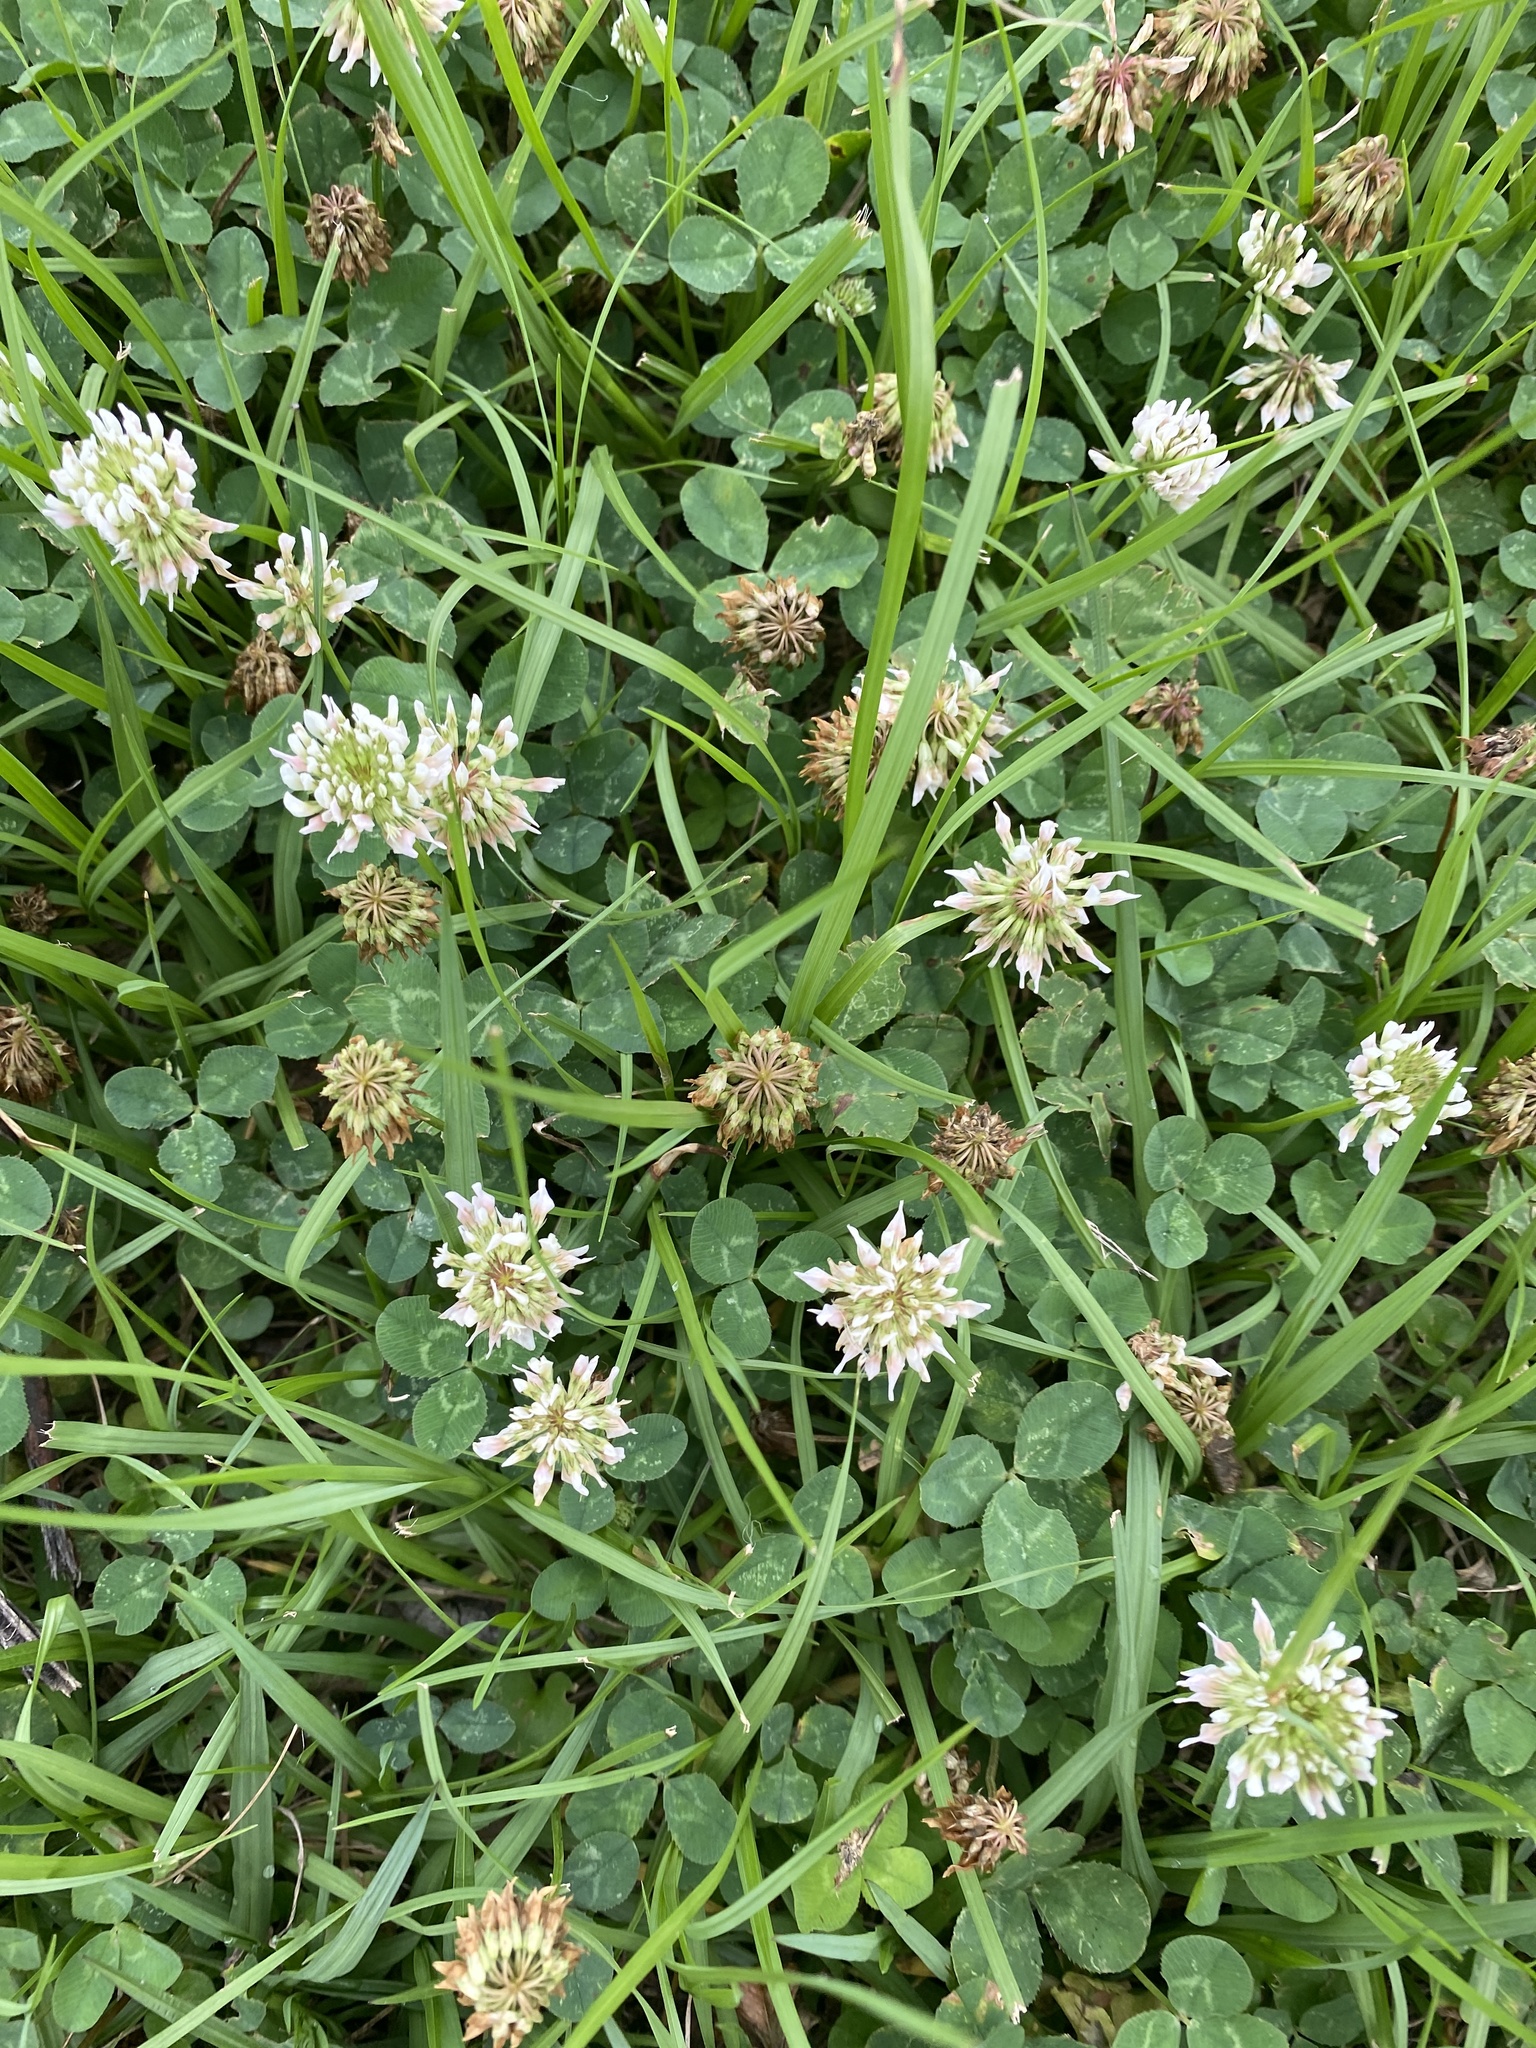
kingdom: Plantae
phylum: Tracheophyta
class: Magnoliopsida
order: Fabales
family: Fabaceae
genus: Trifolium
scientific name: Trifolium repens
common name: White clover
